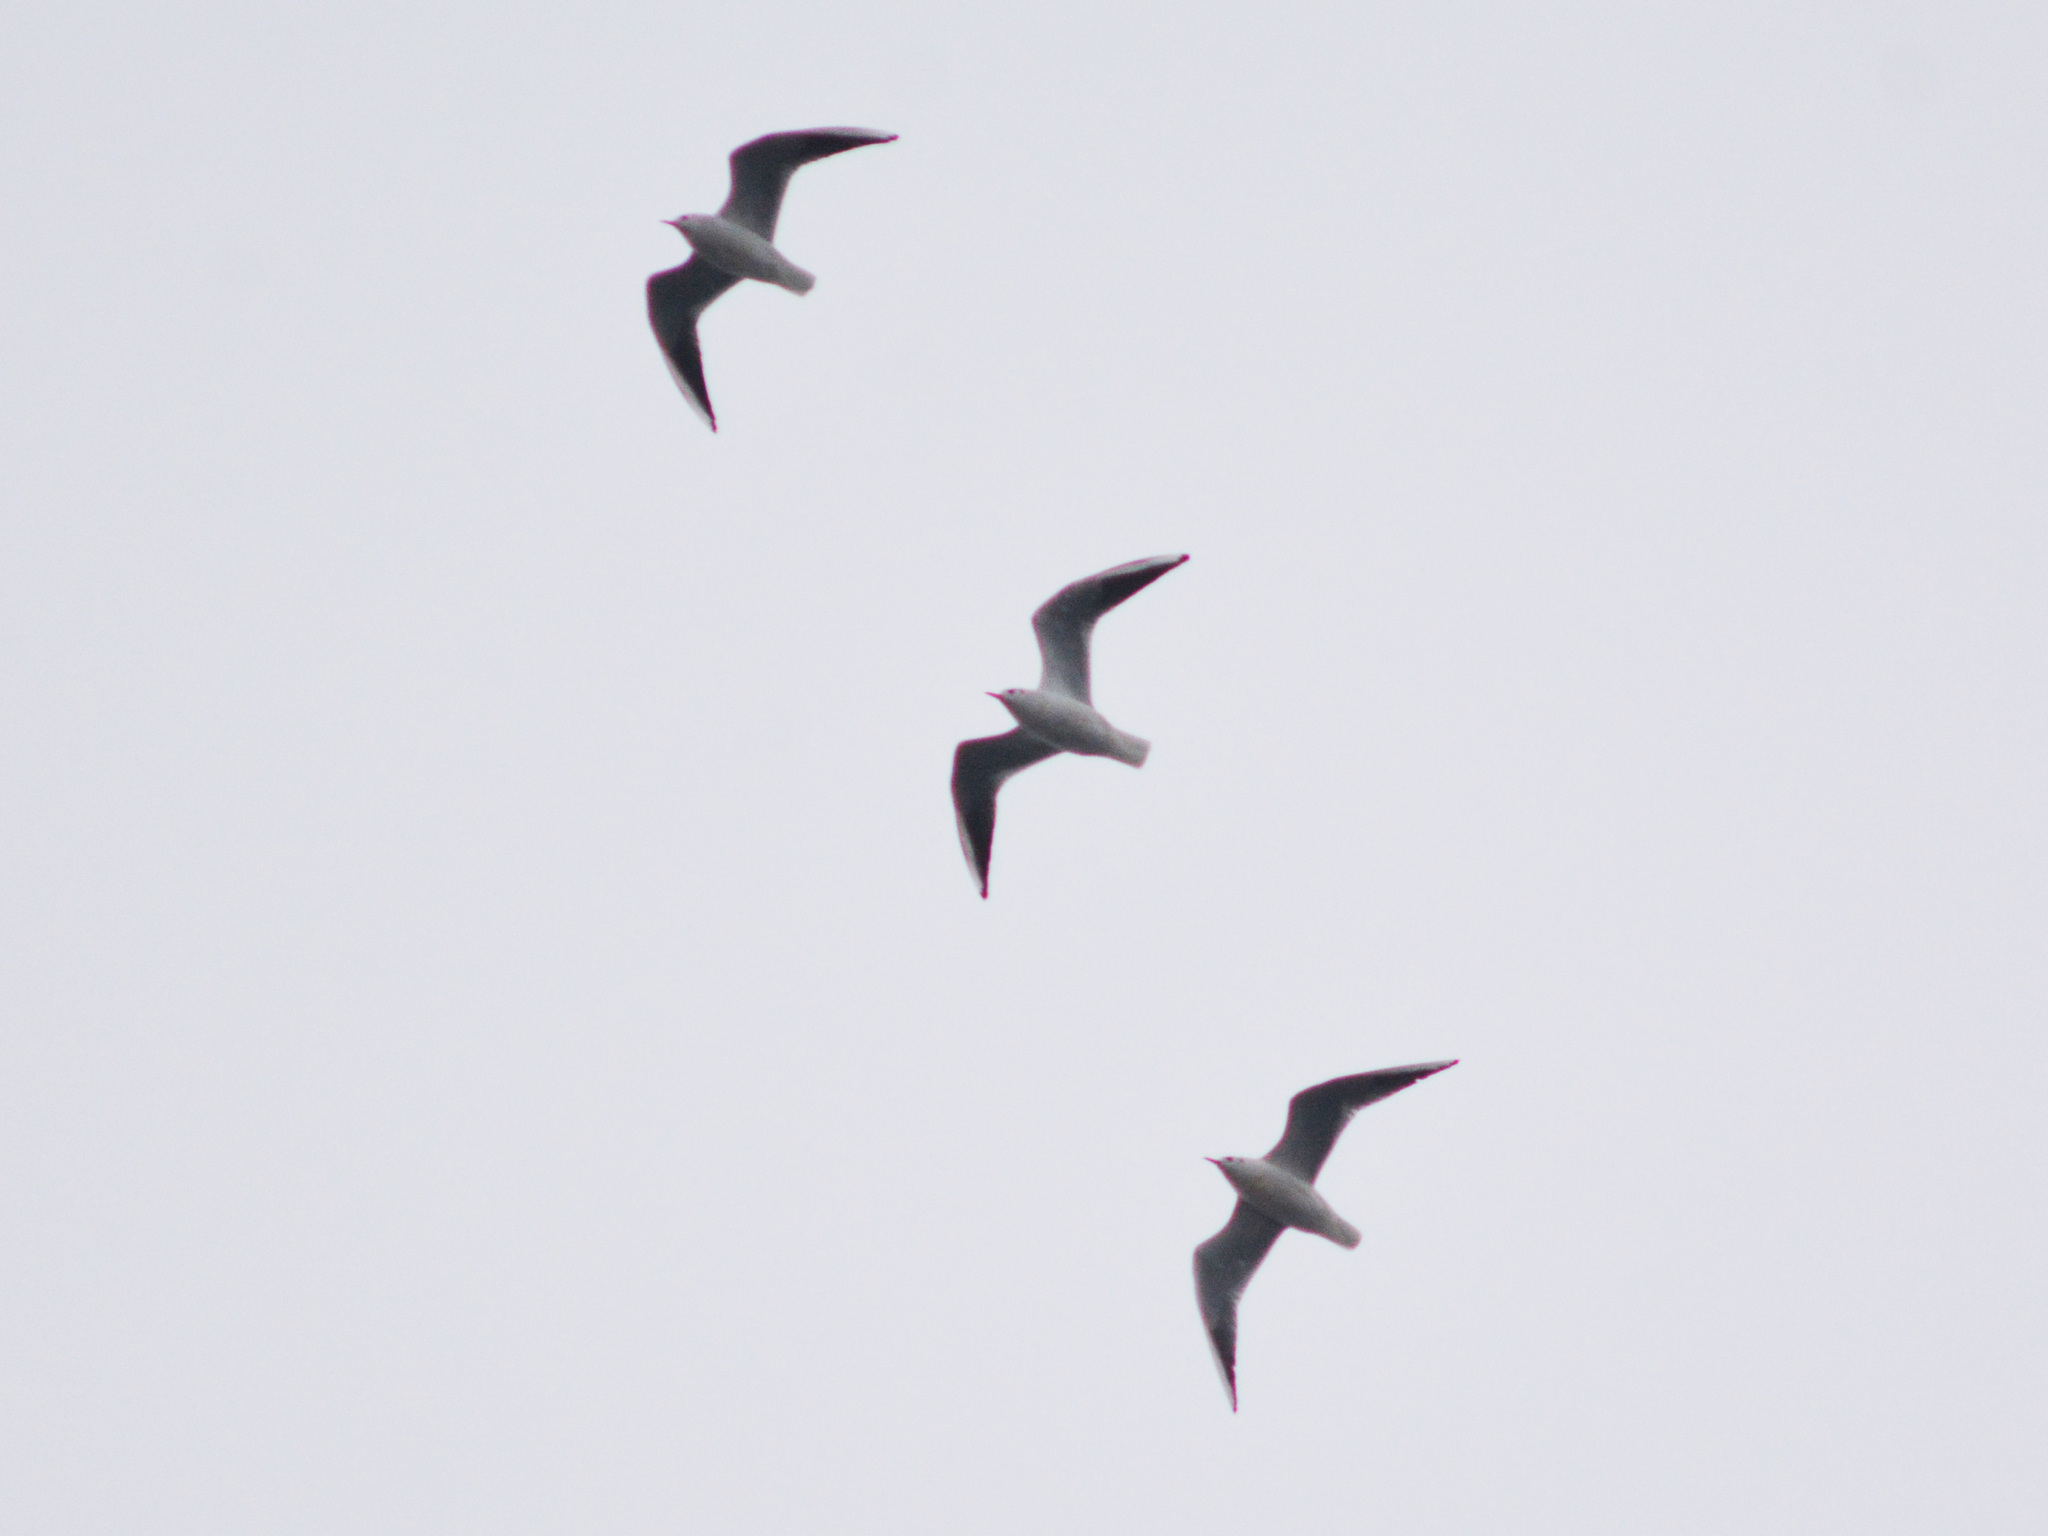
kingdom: Animalia
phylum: Chordata
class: Aves
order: Charadriiformes
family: Laridae
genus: Chroicocephalus
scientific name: Chroicocephalus ridibundus
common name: Black-headed gull
